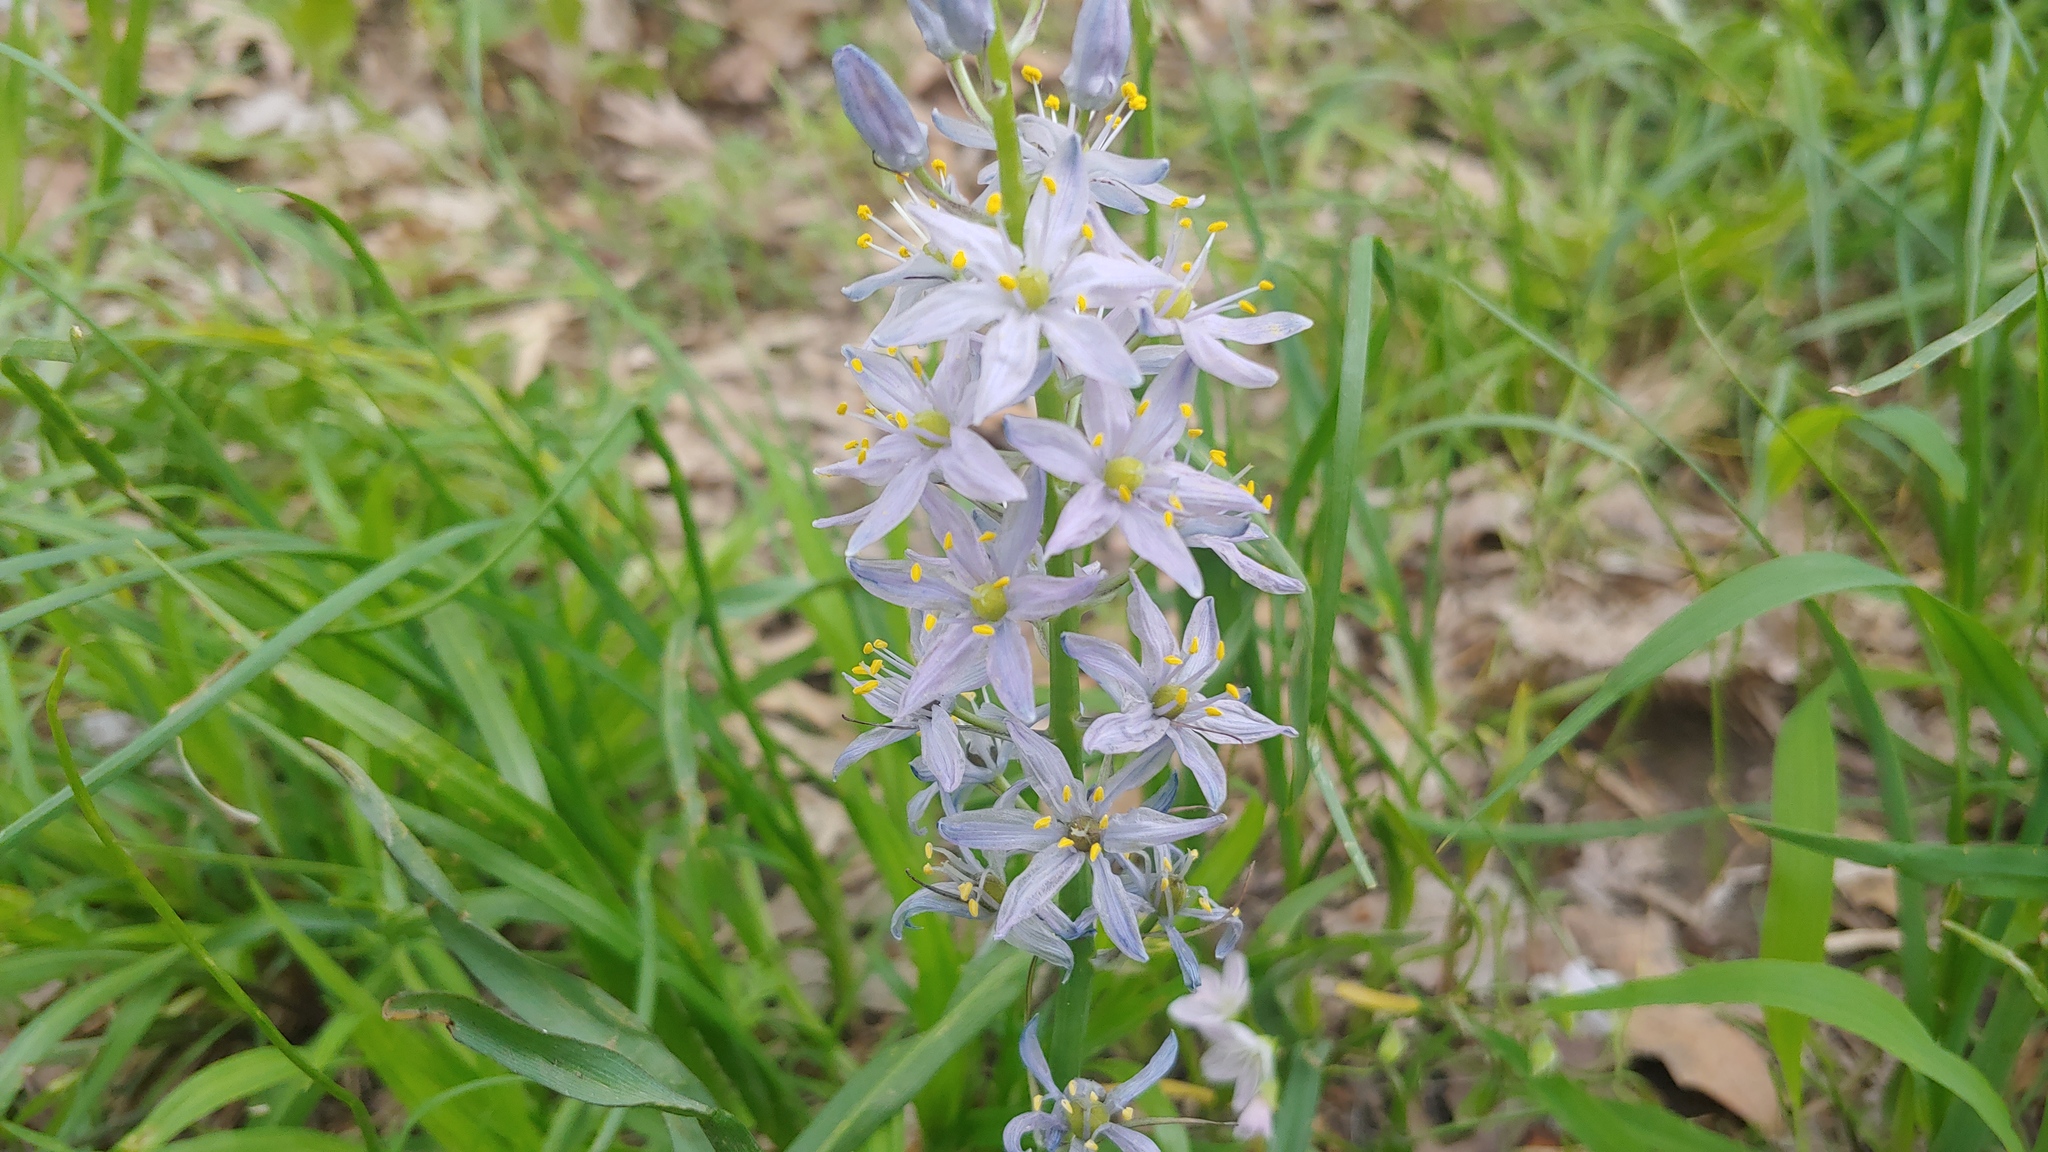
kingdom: Plantae
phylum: Tracheophyta
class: Liliopsida
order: Asparagales
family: Asparagaceae
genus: Camassia
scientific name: Camassia scilloides
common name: Wild hyacinth
